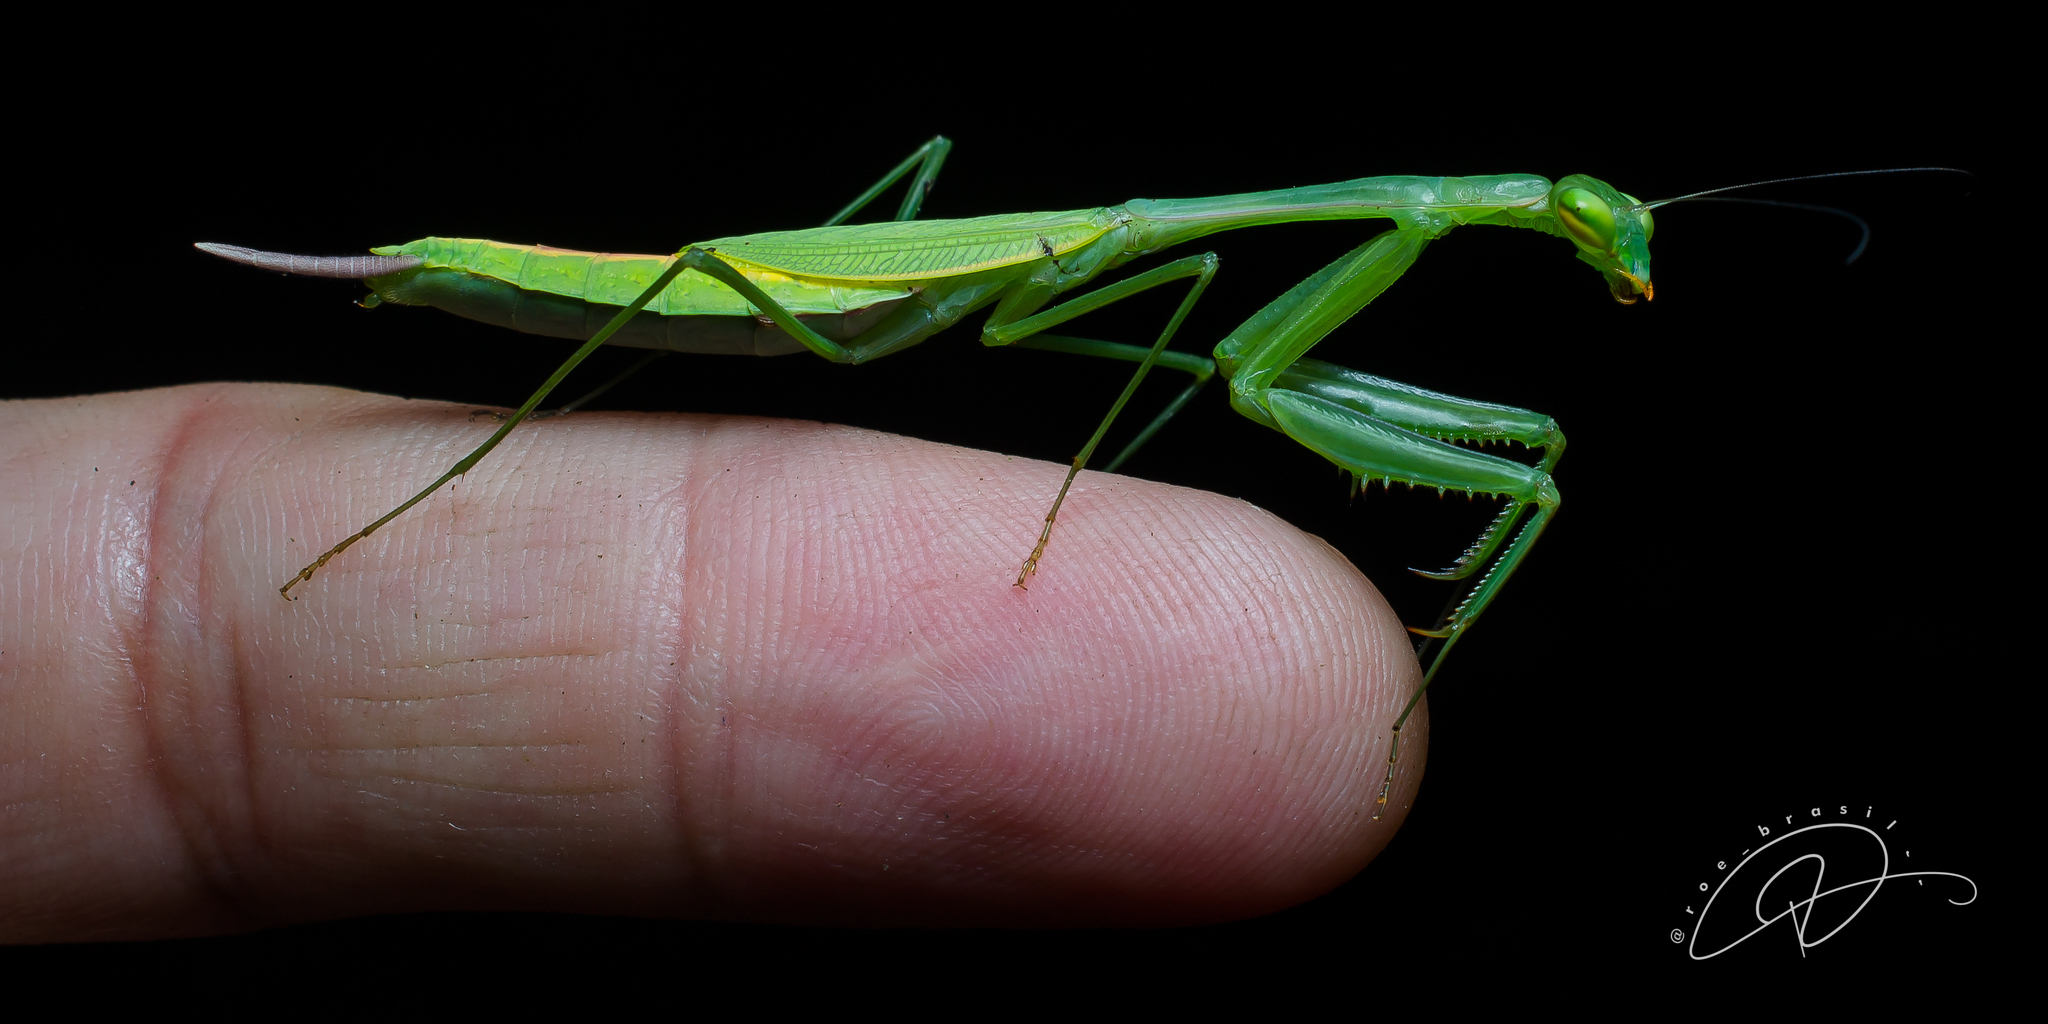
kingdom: Animalia
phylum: Arthropoda
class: Insecta
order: Mantodea
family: Photinaidae
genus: Hicetia
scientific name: Hicetia breviceps
